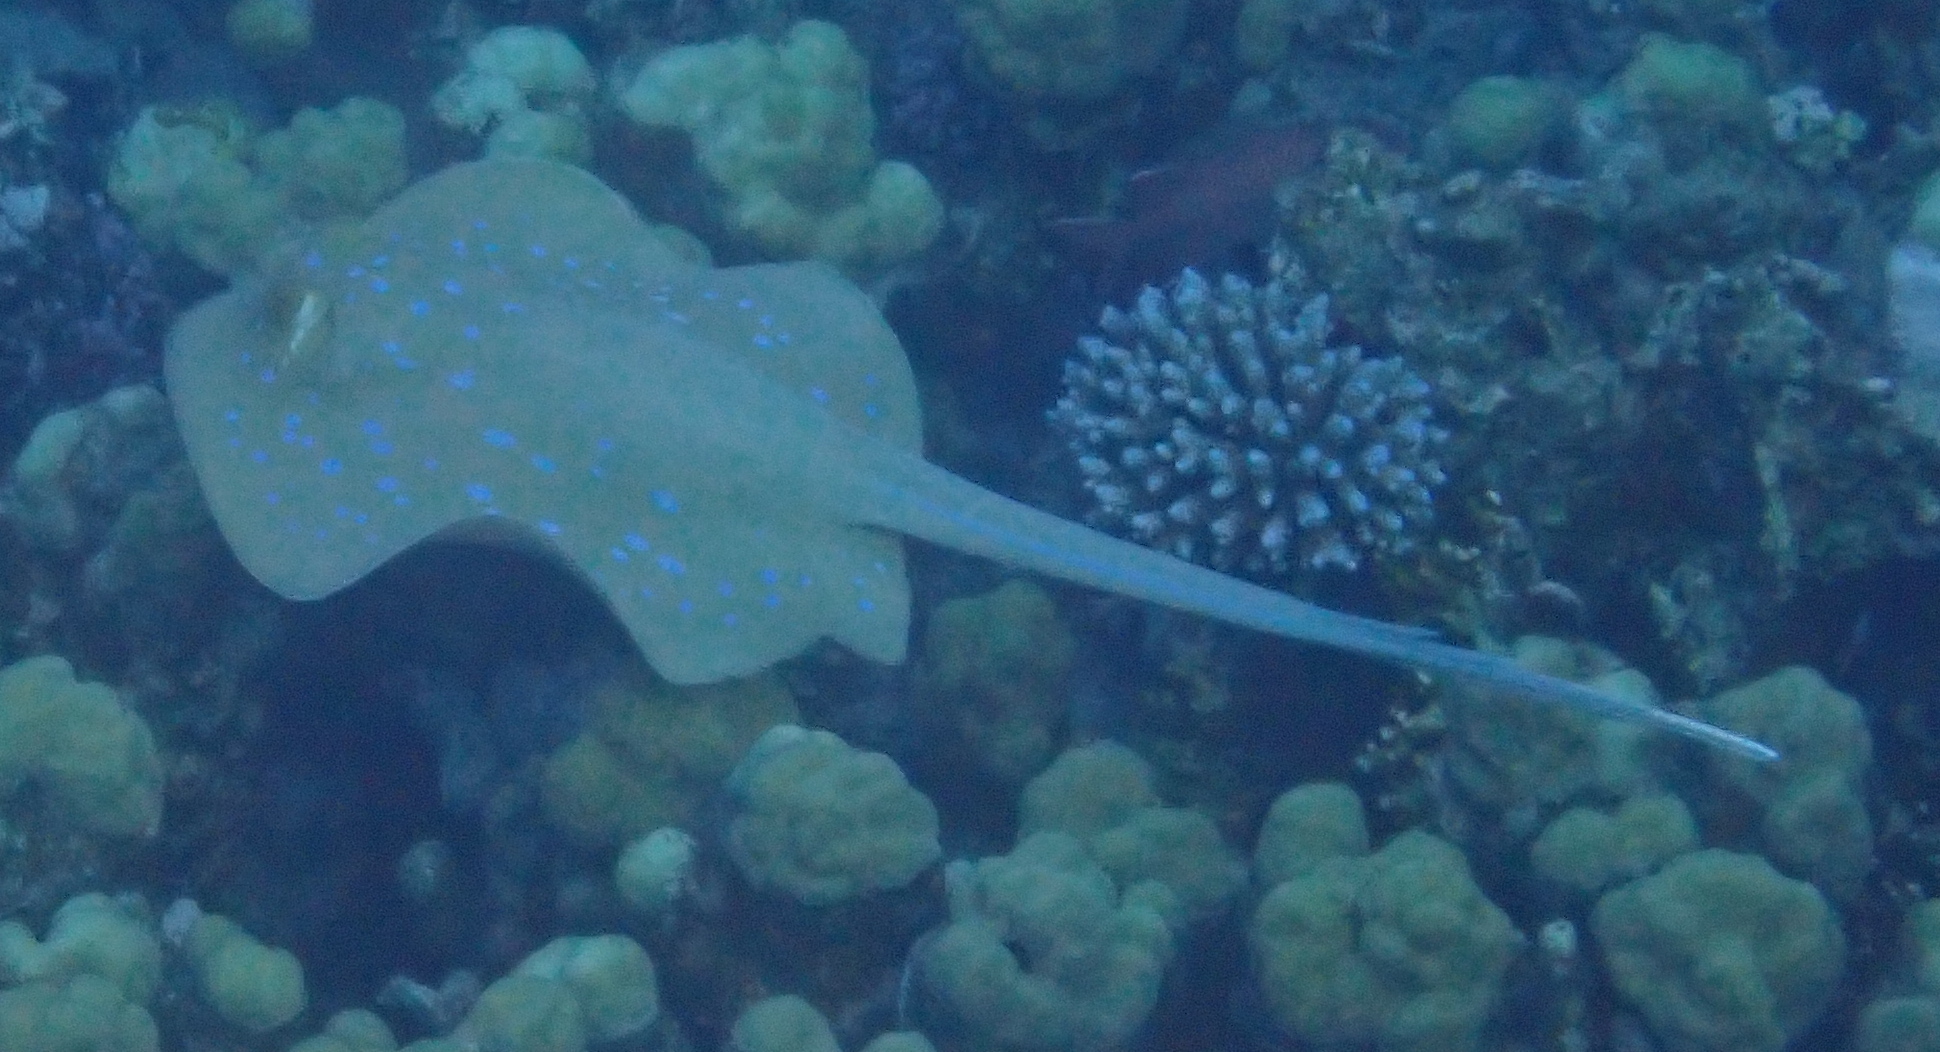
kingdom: Animalia
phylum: Chordata
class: Elasmobranchii
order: Myliobatiformes
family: Dasyatidae
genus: Taeniura
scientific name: Taeniura lymma
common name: Bluespotted ribbontail ray
